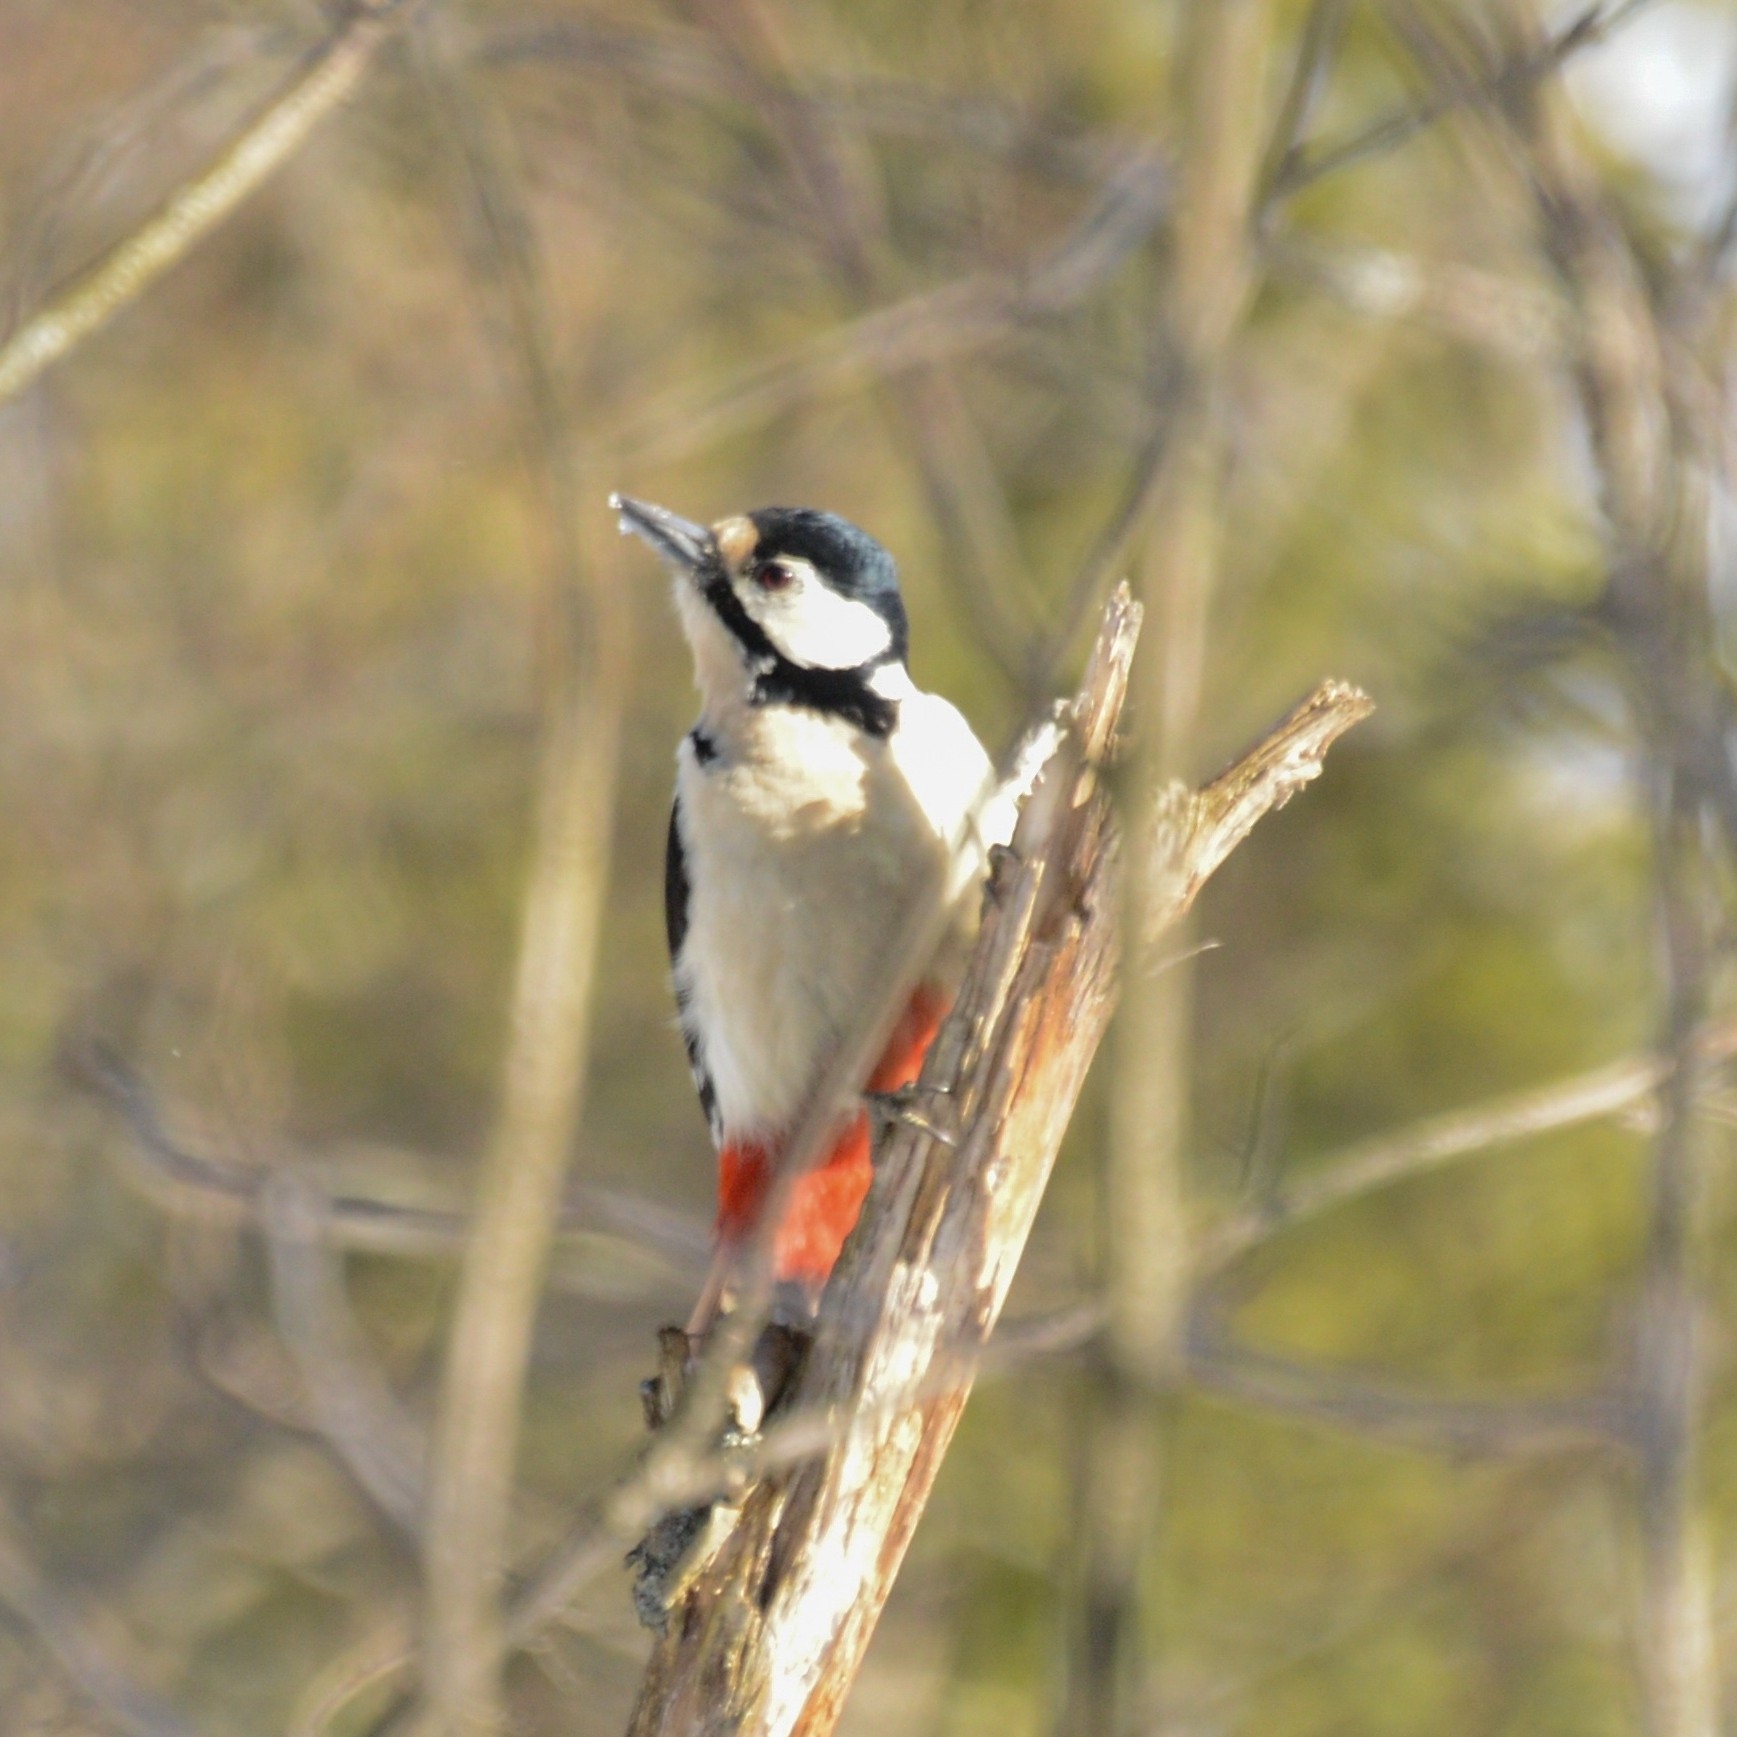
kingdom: Animalia
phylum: Chordata
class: Aves
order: Piciformes
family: Picidae
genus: Dendrocopos
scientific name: Dendrocopos major
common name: Great spotted woodpecker
